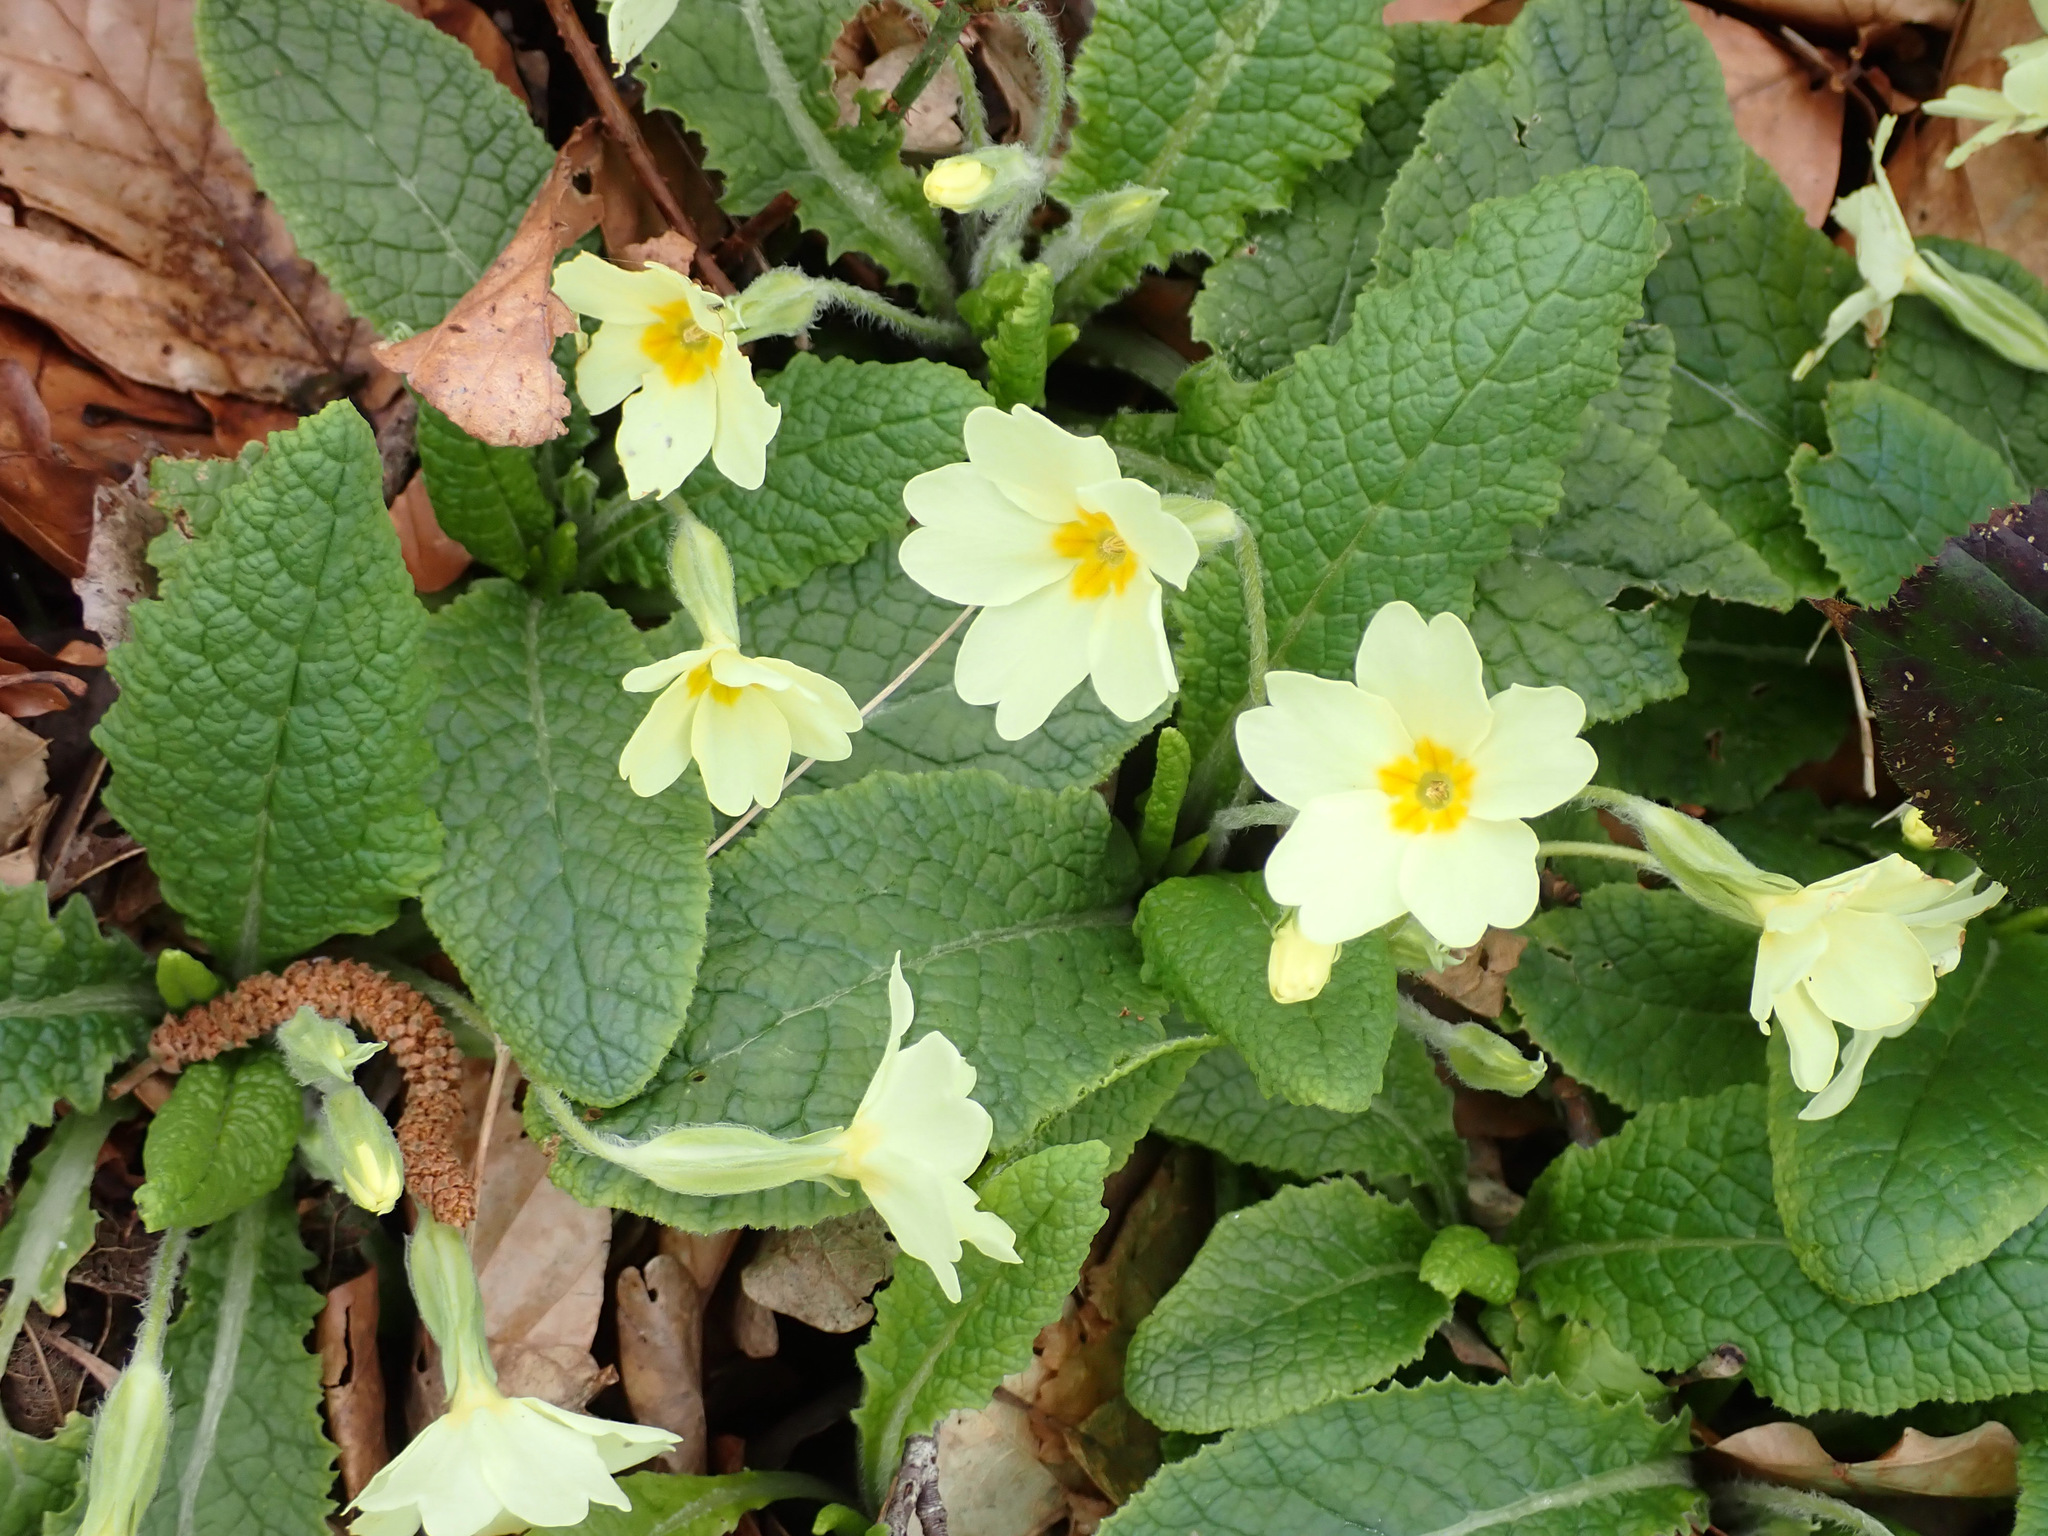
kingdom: Plantae
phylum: Tracheophyta
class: Magnoliopsida
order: Ericales
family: Primulaceae
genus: Primula
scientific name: Primula vulgaris
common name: Primrose
